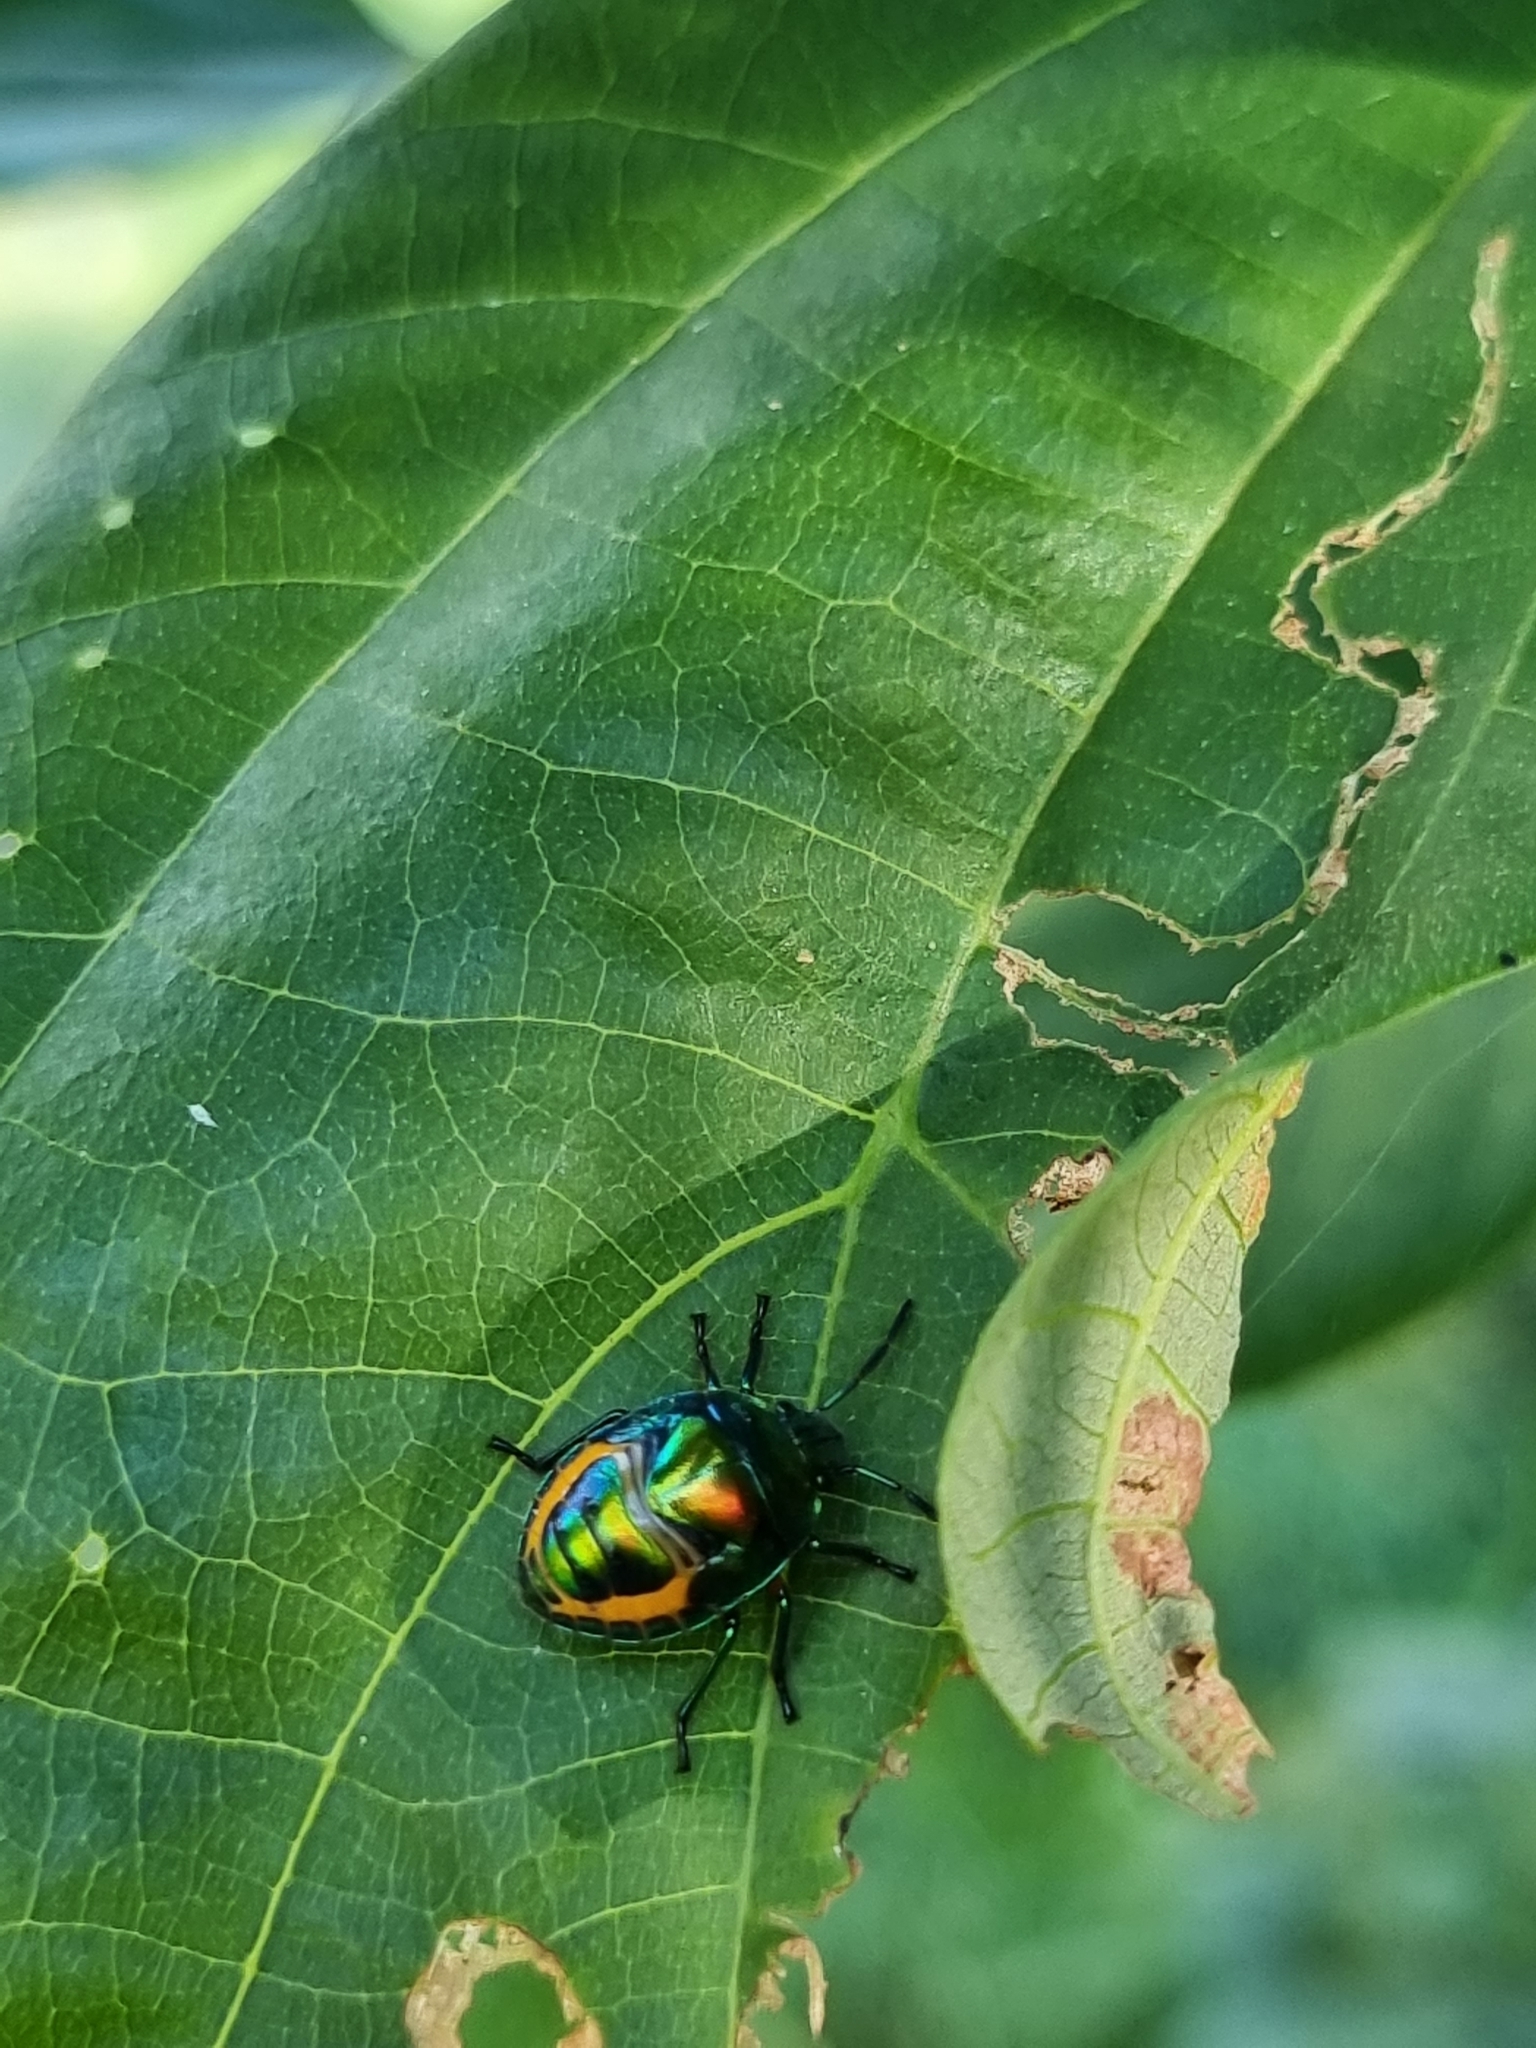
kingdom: Animalia
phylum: Arthropoda
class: Insecta
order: Hemiptera
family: Scutelleridae
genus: Lampromicra
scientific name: Lampromicra senator
